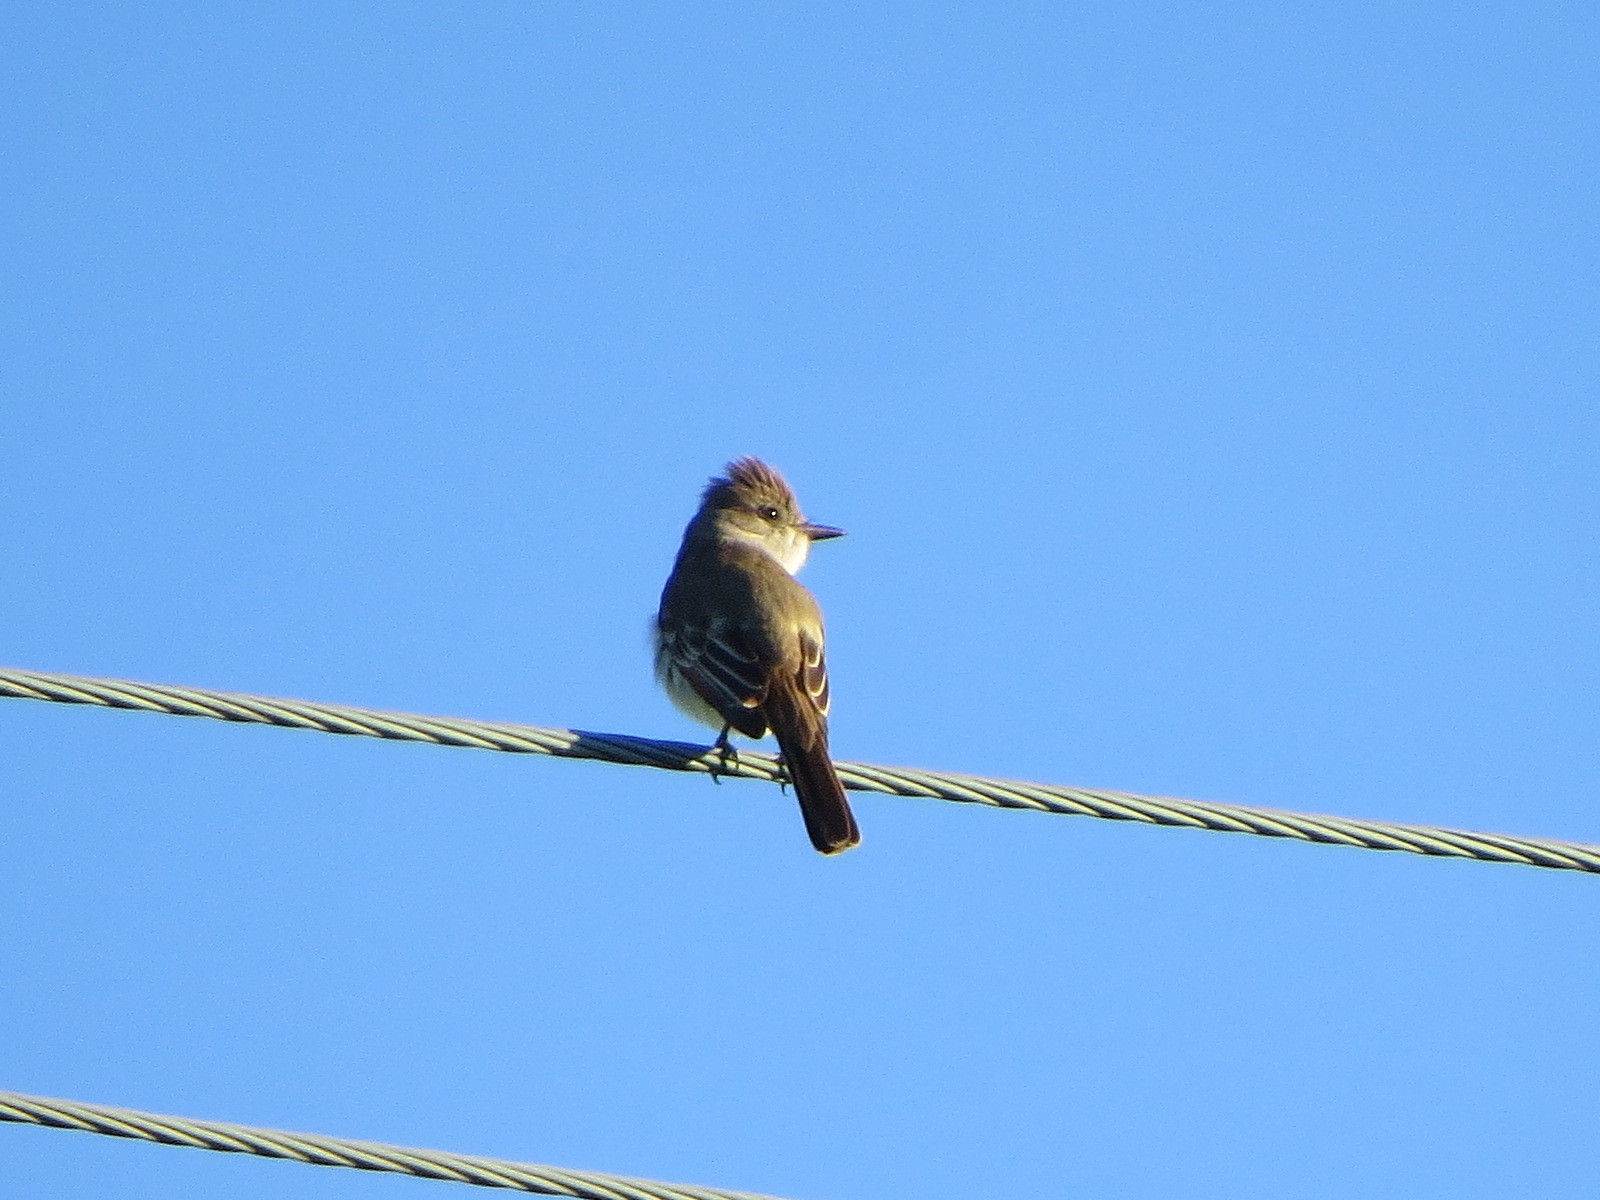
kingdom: Animalia
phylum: Chordata
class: Aves
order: Passeriformes
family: Tyrannidae
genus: Myiarchus
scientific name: Myiarchus cinerascens
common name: Ash-throated flycatcher
